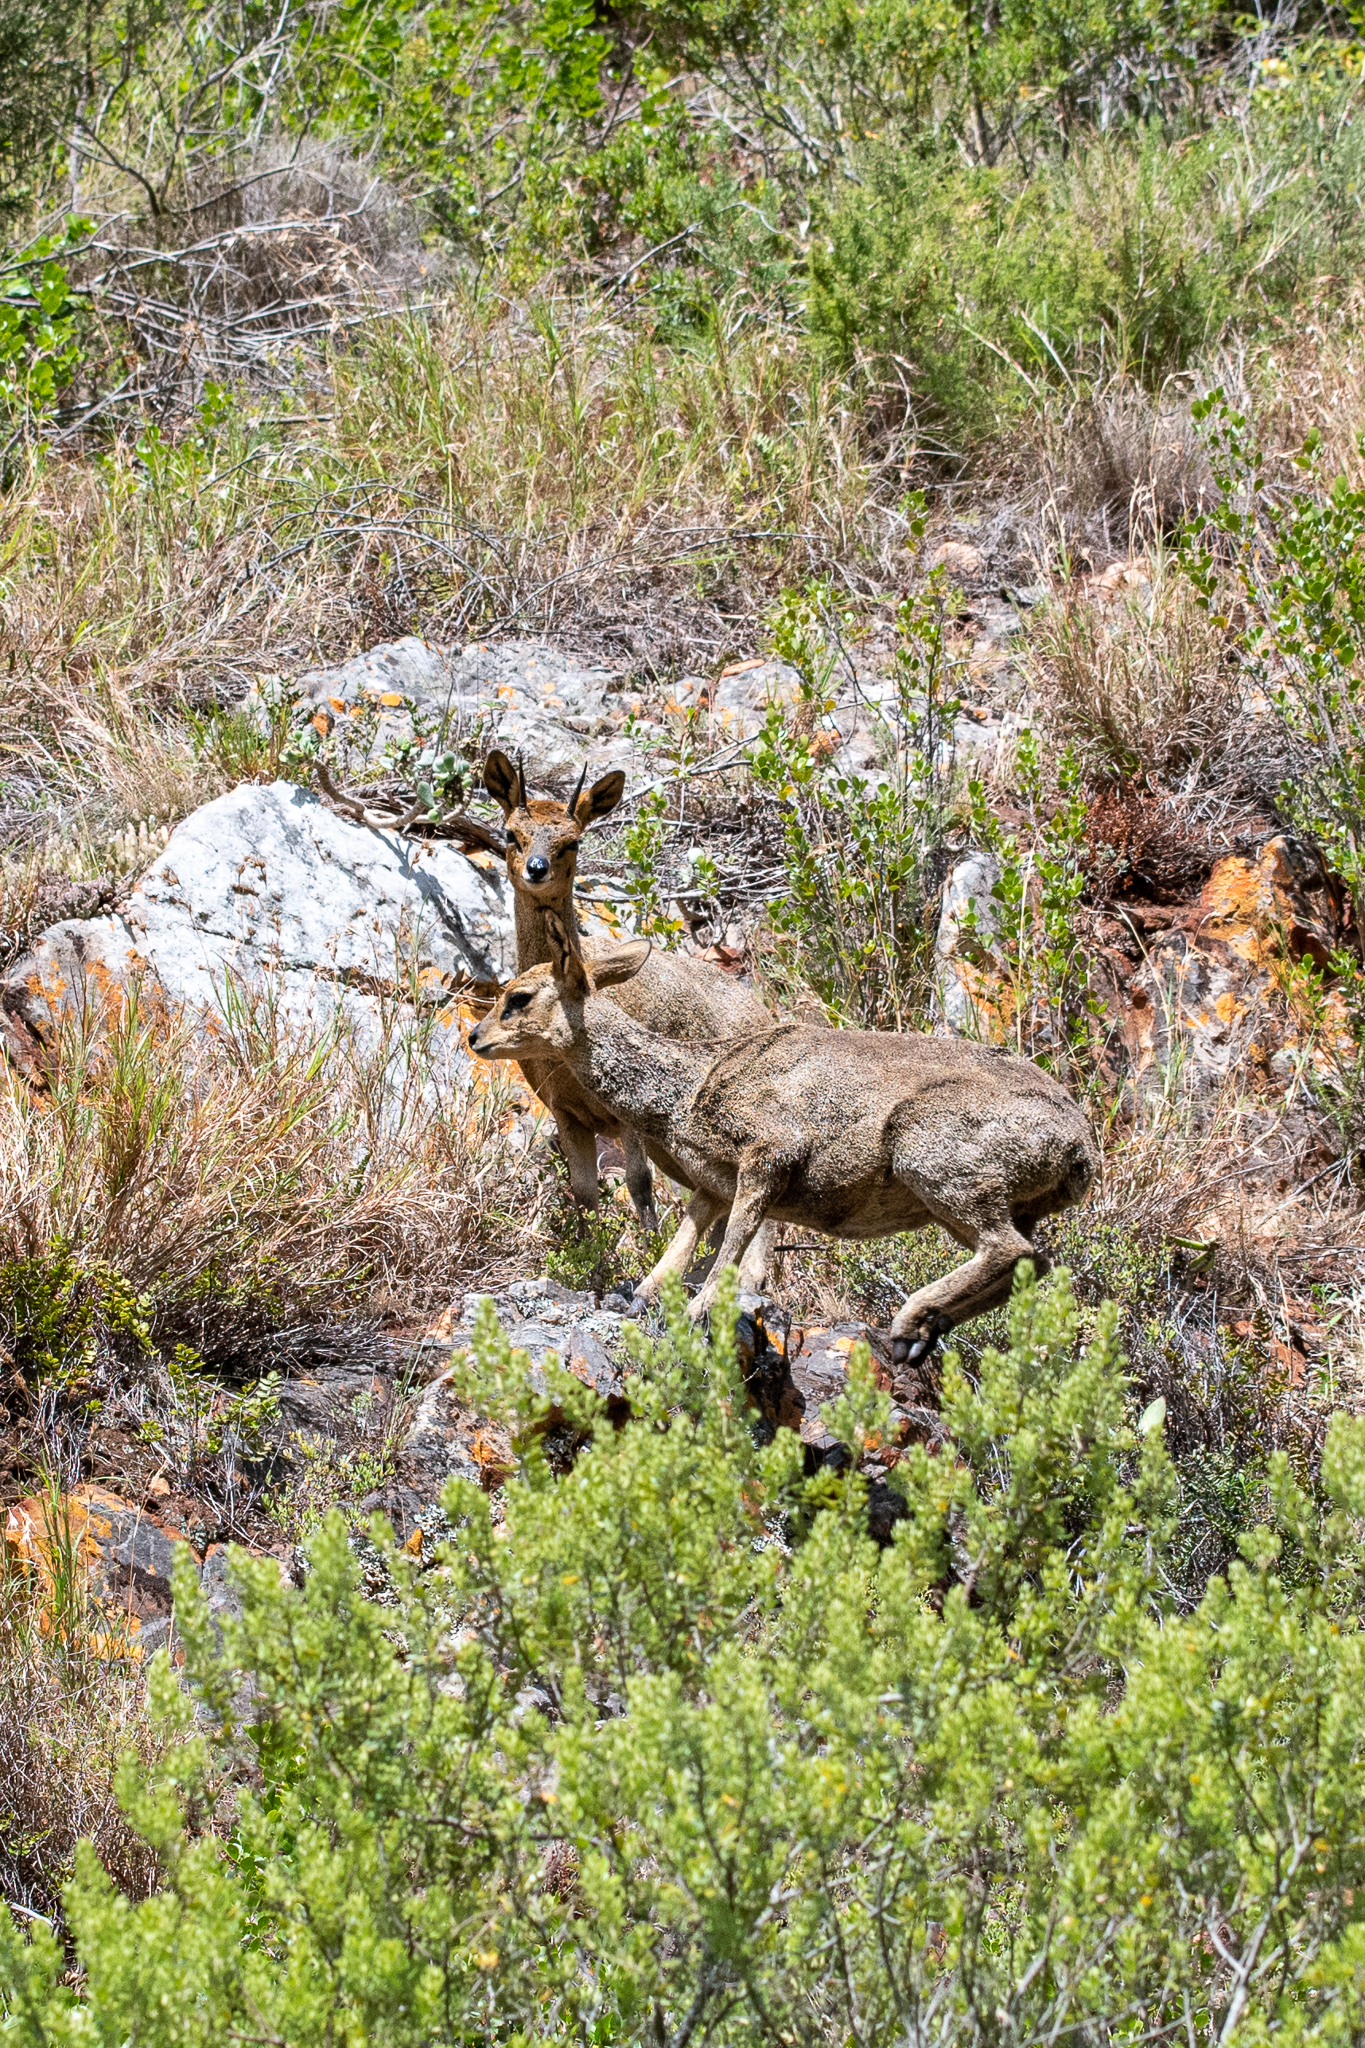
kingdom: Animalia
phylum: Chordata
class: Mammalia
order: Artiodactyla
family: Bovidae
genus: Oreotragus
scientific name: Oreotragus oreotragus
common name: Klipspringer
